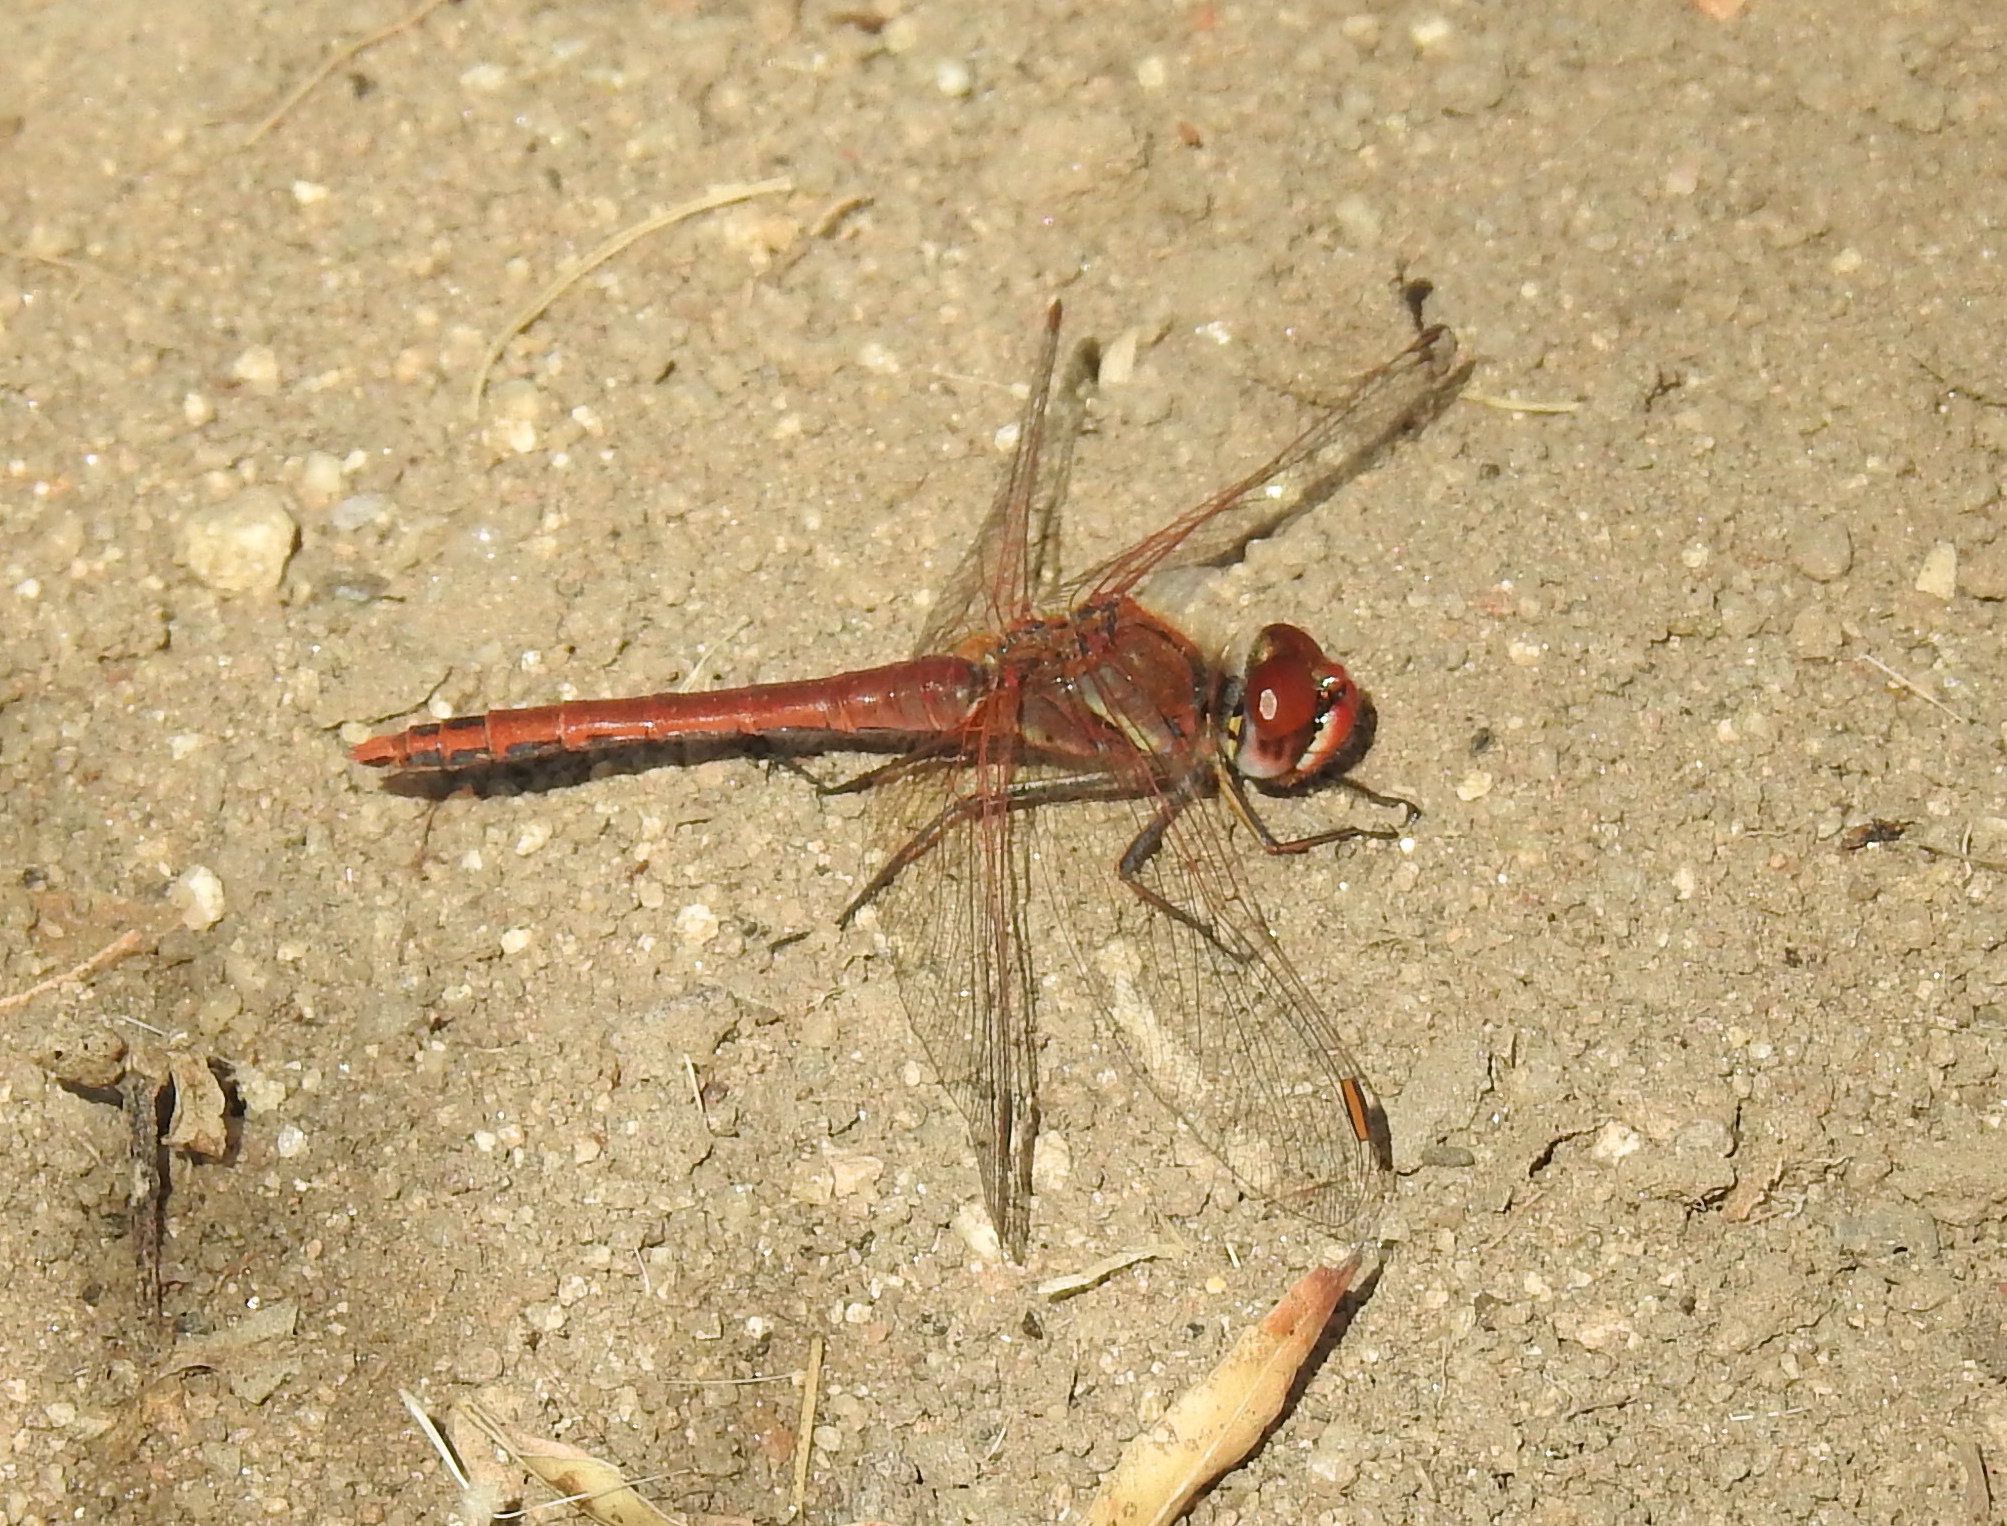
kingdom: Animalia
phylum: Arthropoda
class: Insecta
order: Odonata
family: Libellulidae
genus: Sympetrum
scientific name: Sympetrum fonscolombii
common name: Red-veined darter
